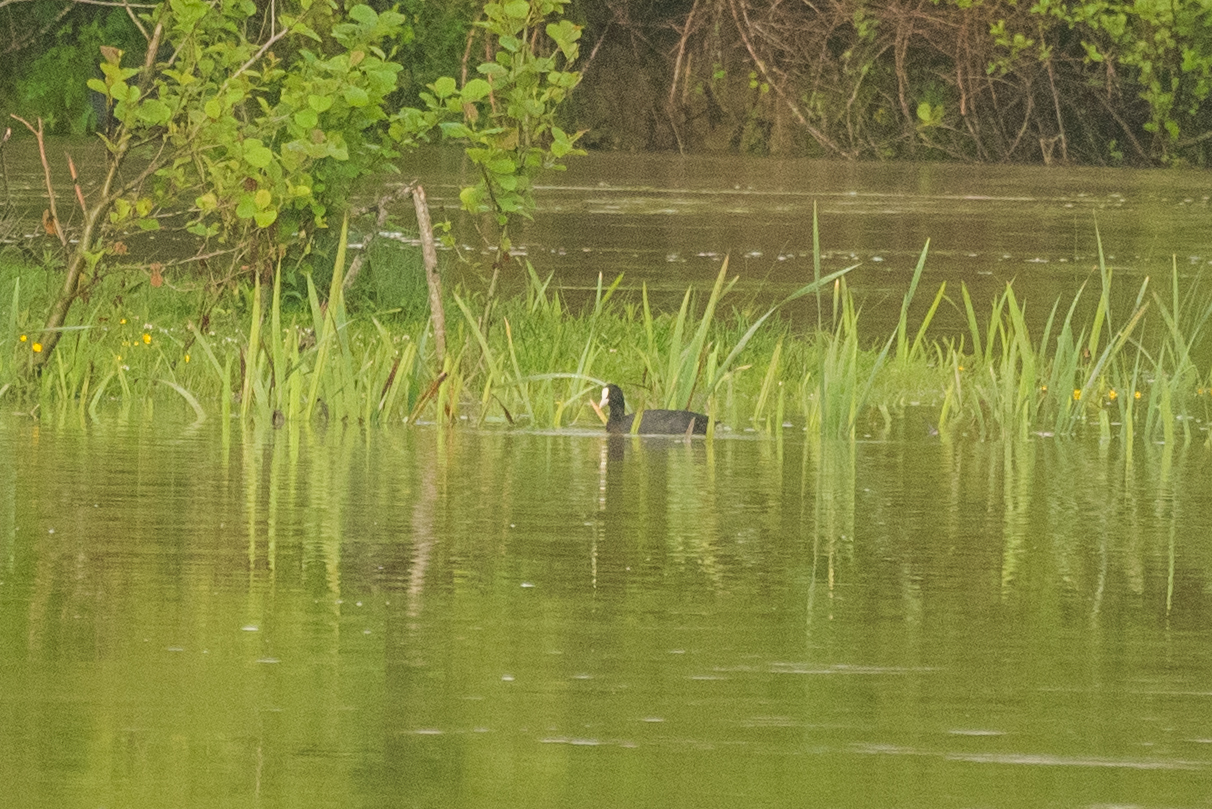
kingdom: Animalia
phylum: Chordata
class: Aves
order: Gruiformes
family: Rallidae
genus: Fulica
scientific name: Fulica atra
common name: Eurasian coot
